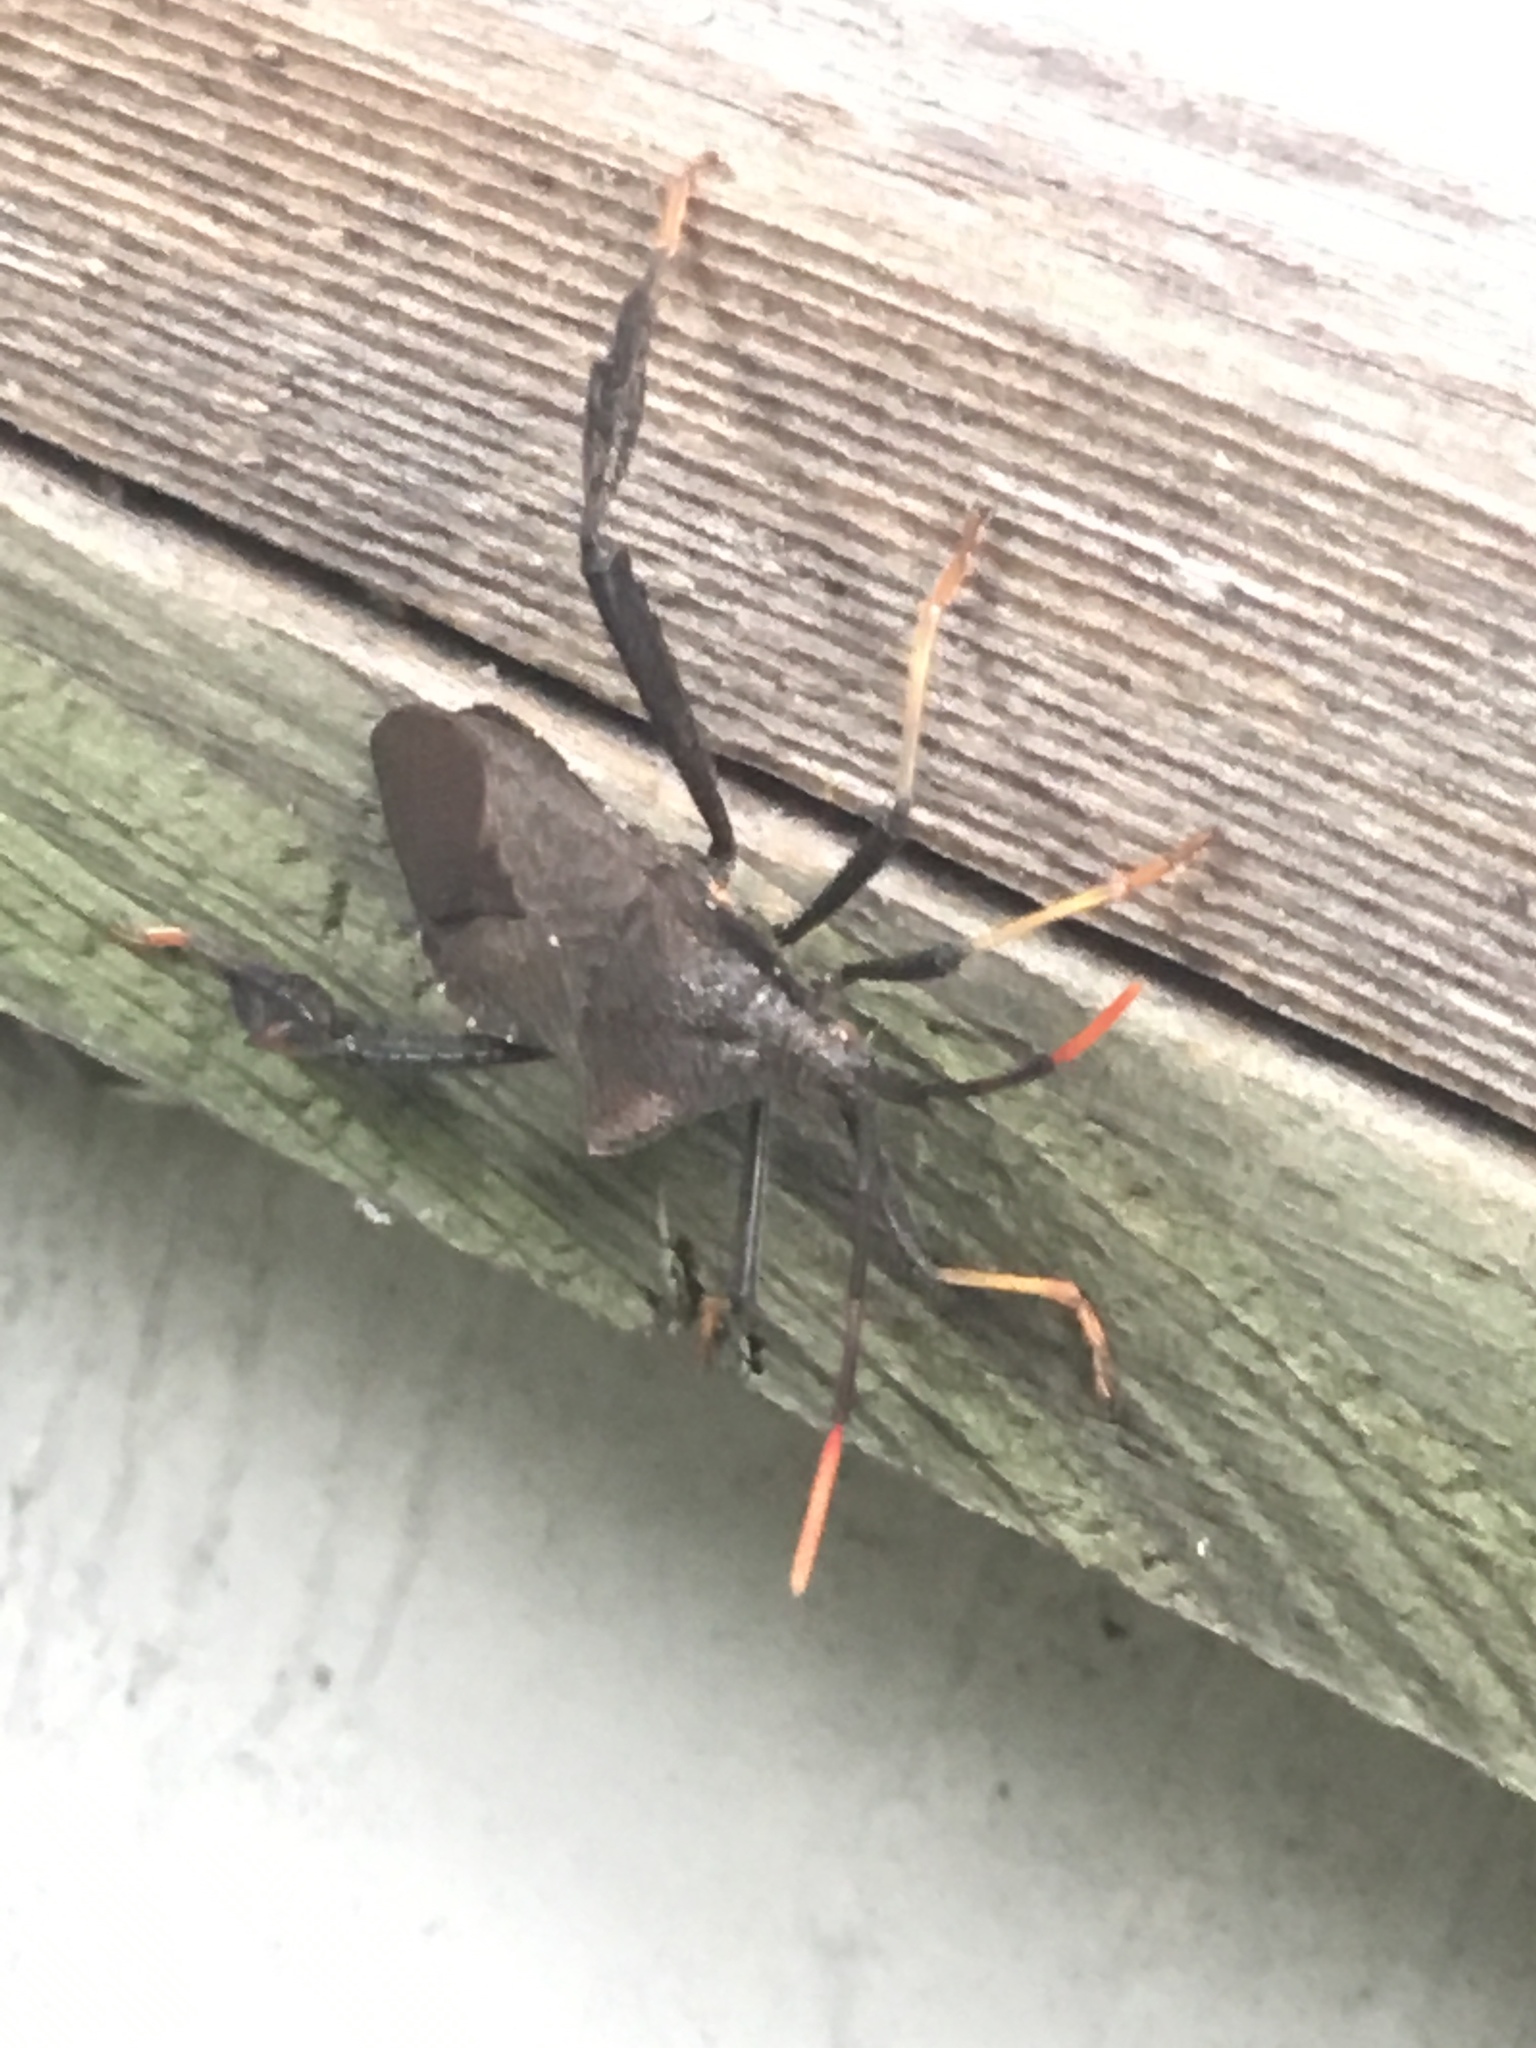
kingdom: Animalia
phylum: Arthropoda
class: Insecta
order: Hemiptera
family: Coreidae
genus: Acanthocephala
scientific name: Acanthocephala terminalis
